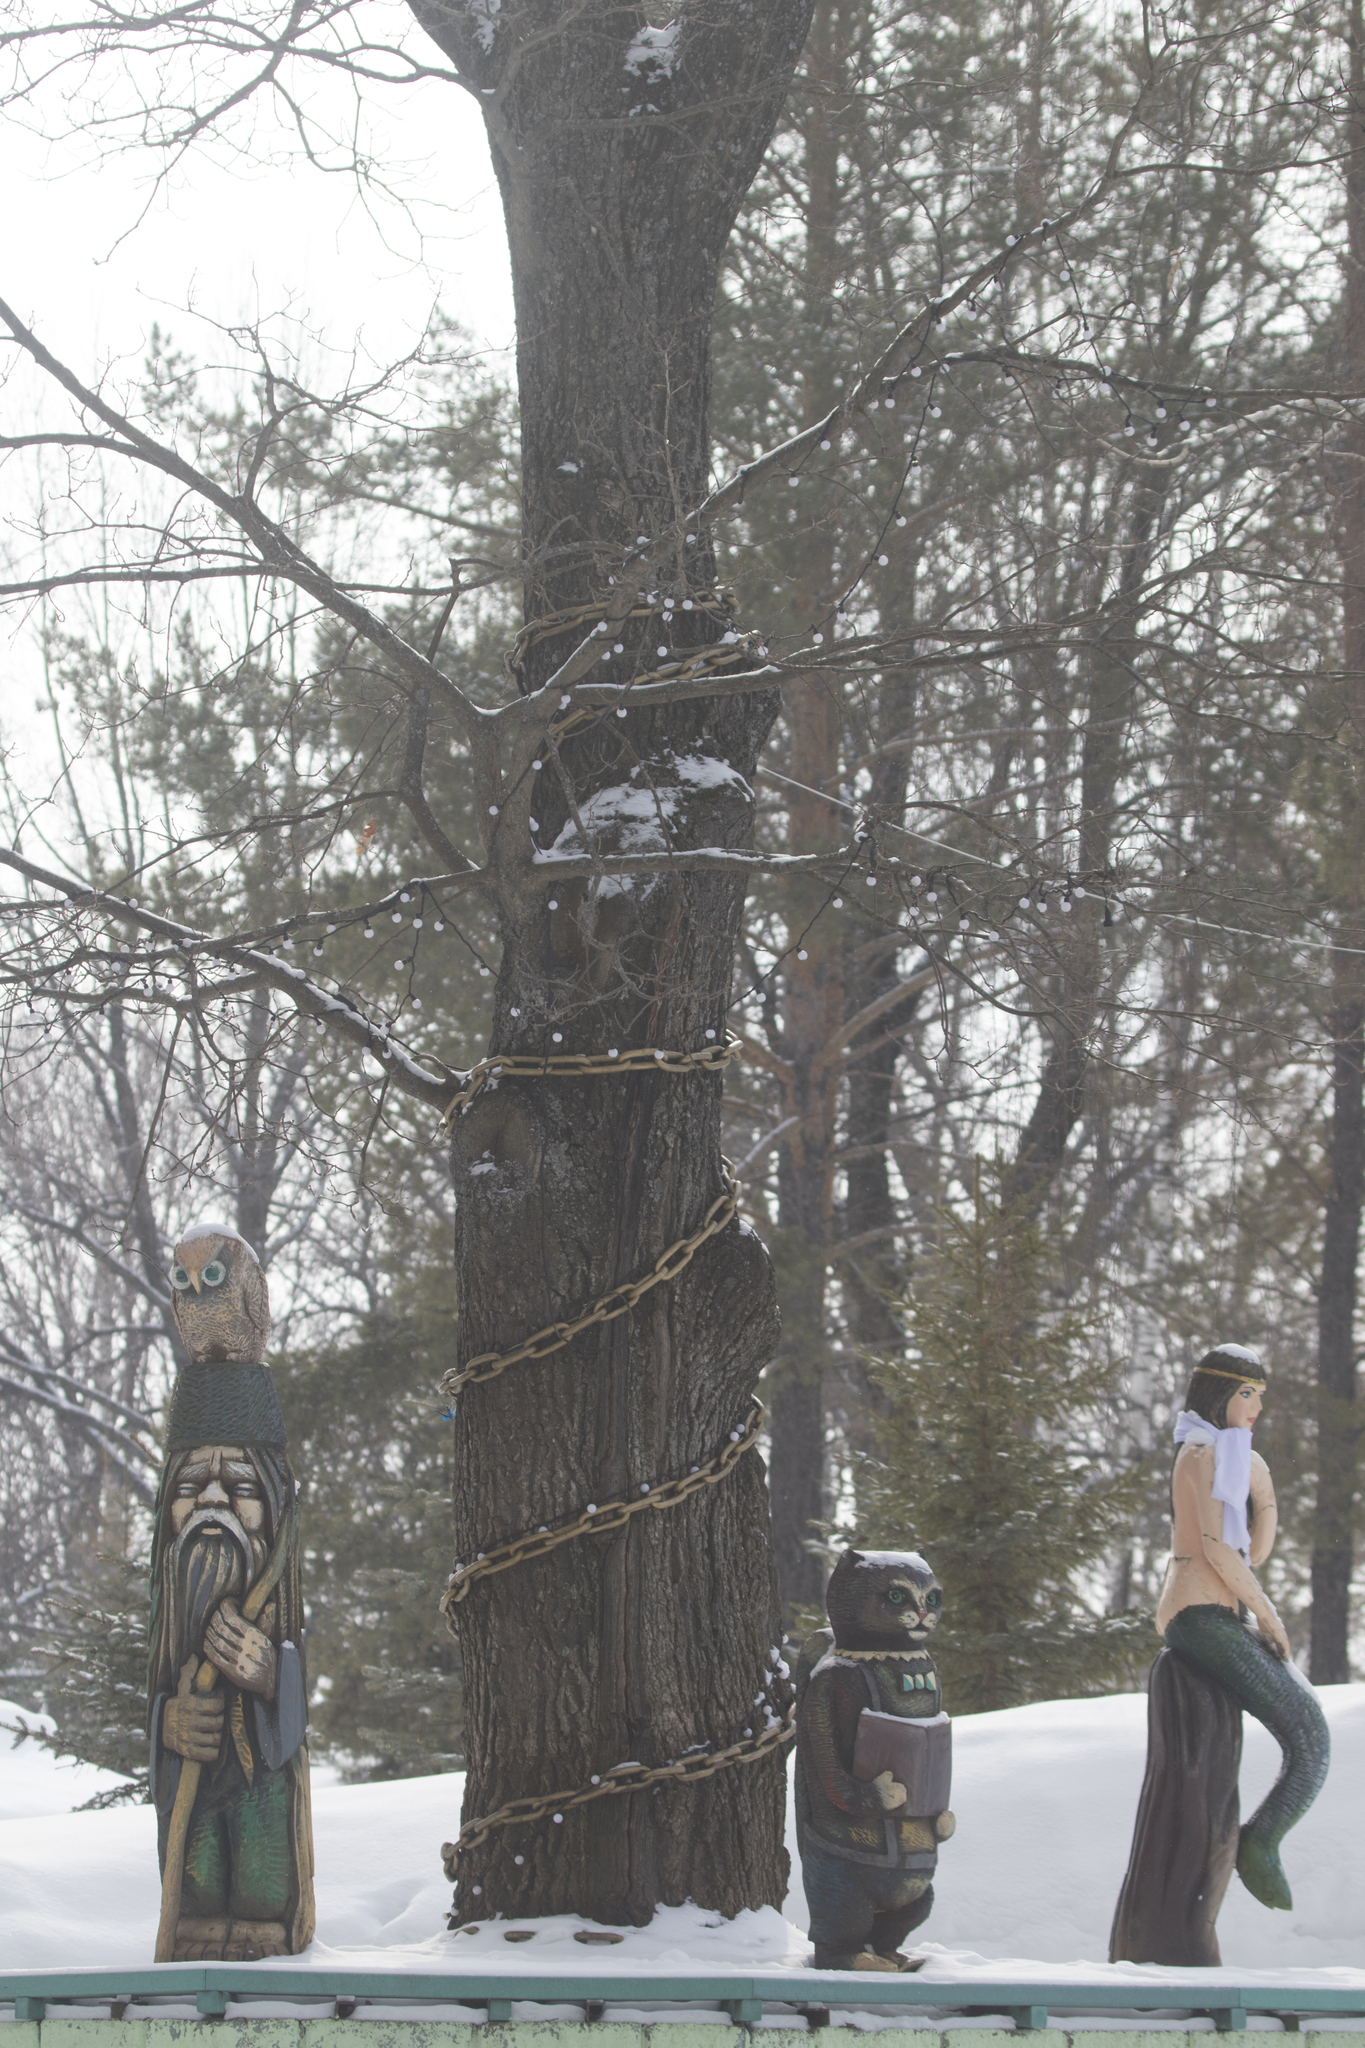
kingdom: Plantae
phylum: Tracheophyta
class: Magnoliopsida
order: Fagales
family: Fagaceae
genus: Quercus
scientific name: Quercus robur
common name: Pedunculate oak
